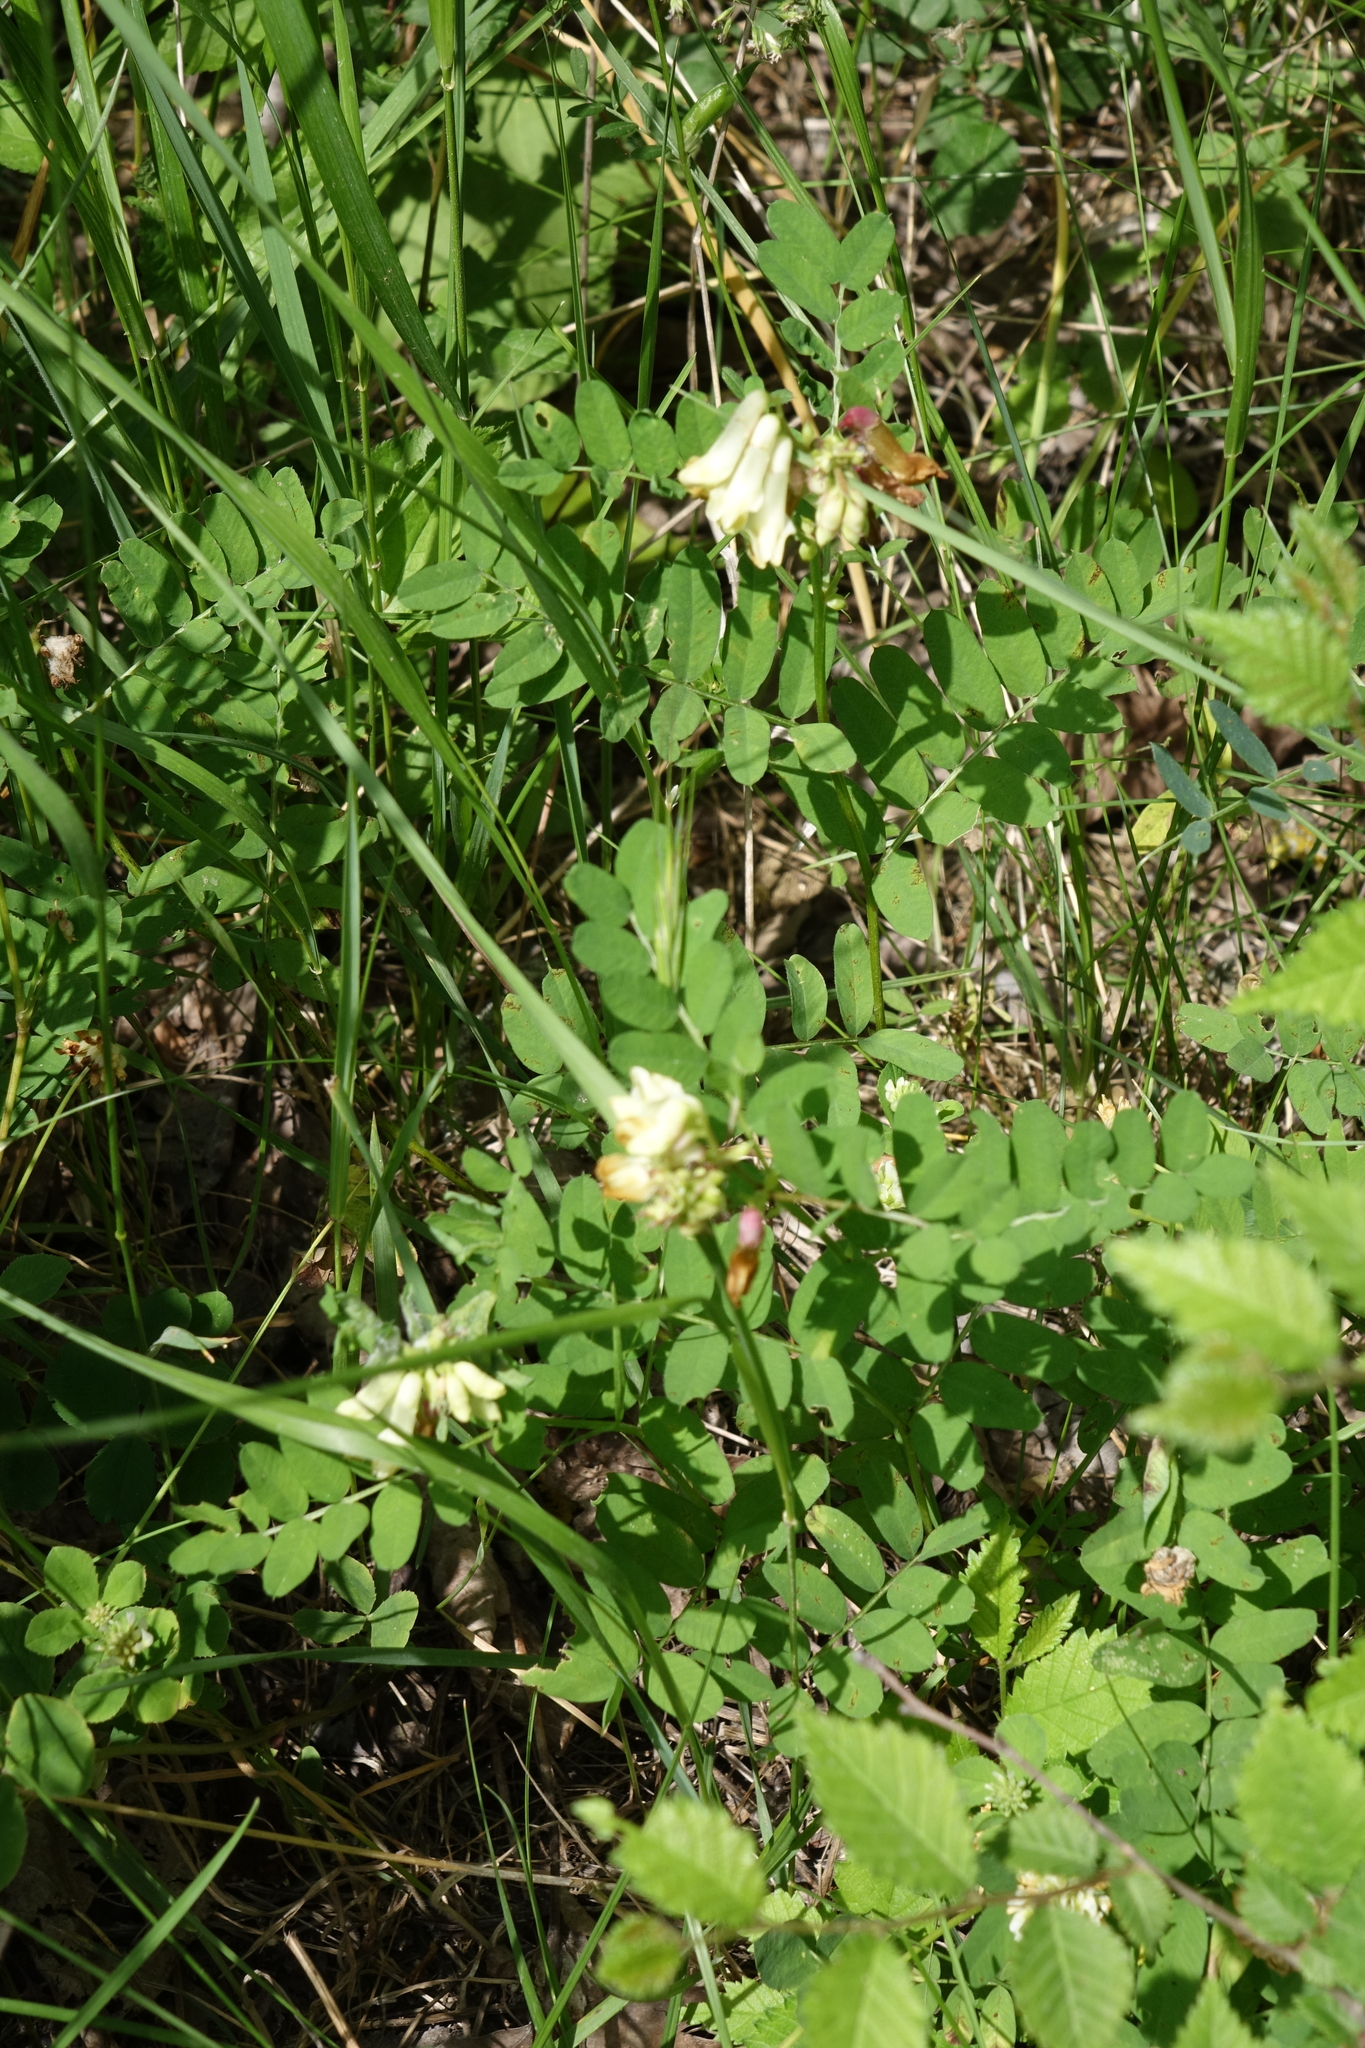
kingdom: Plantae
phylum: Tracheophyta
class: Magnoliopsida
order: Fabales
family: Fabaceae
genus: Vicia
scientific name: Vicia abbreviata
